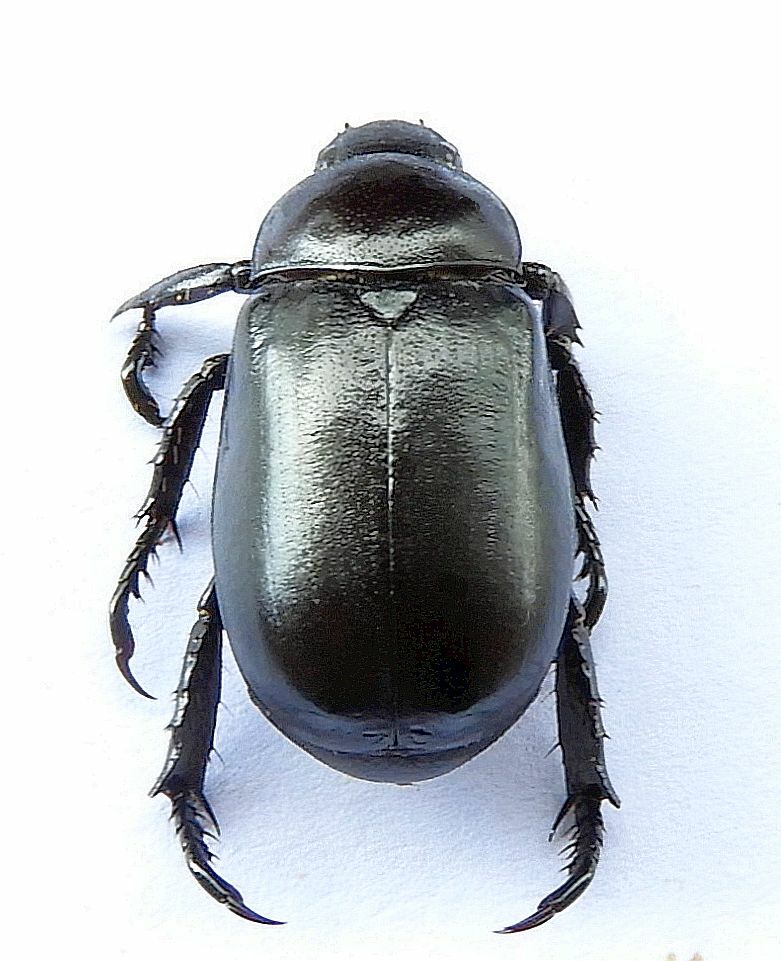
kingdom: Animalia
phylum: Arthropoda
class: Insecta
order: Coleoptera
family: Scarabaeidae
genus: Pelidnota
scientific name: Pelidnota lugubris
